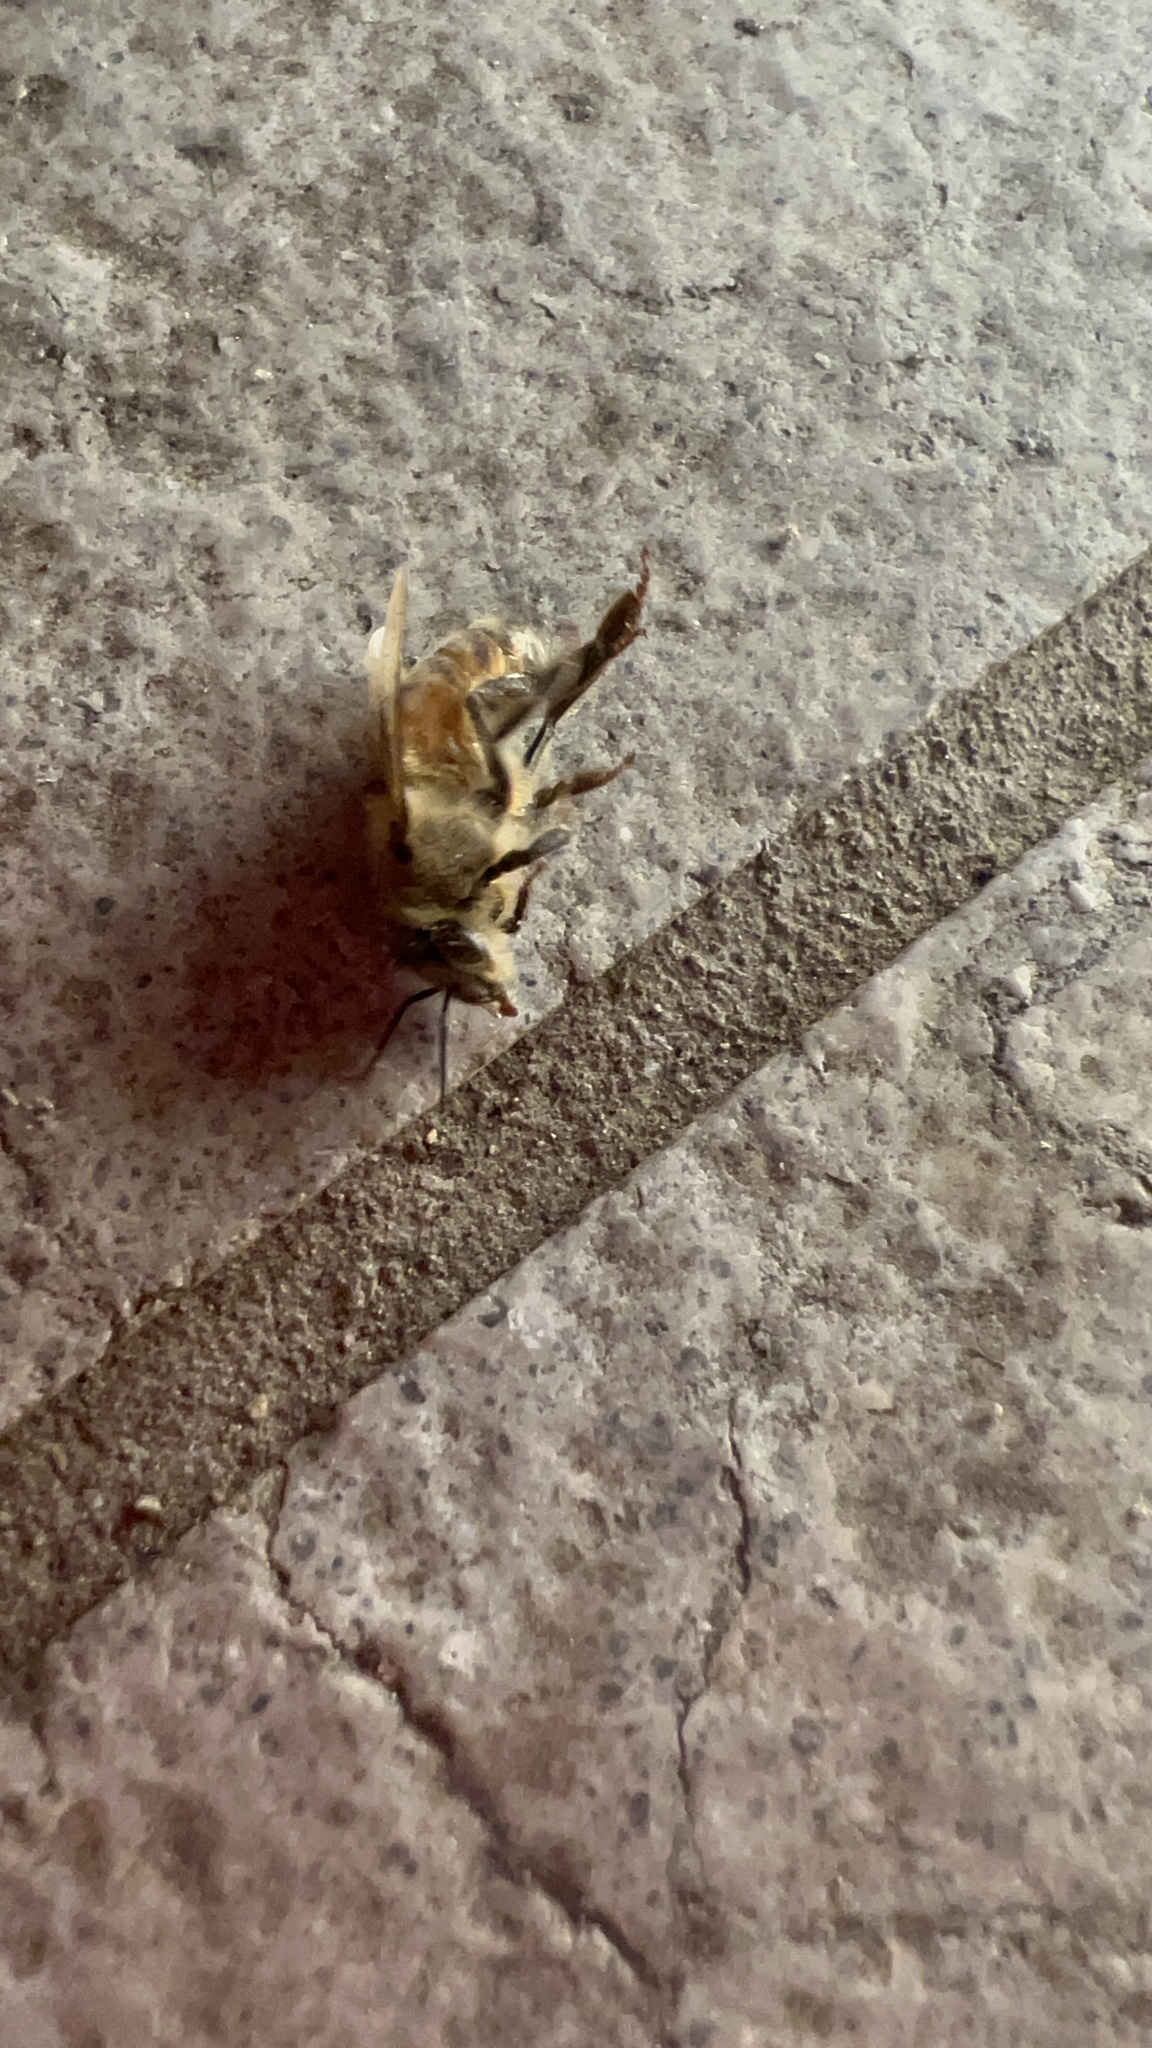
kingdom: Animalia
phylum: Arthropoda
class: Insecta
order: Hymenoptera
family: Apidae
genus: Apis
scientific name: Apis mellifera
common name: Honey bee
